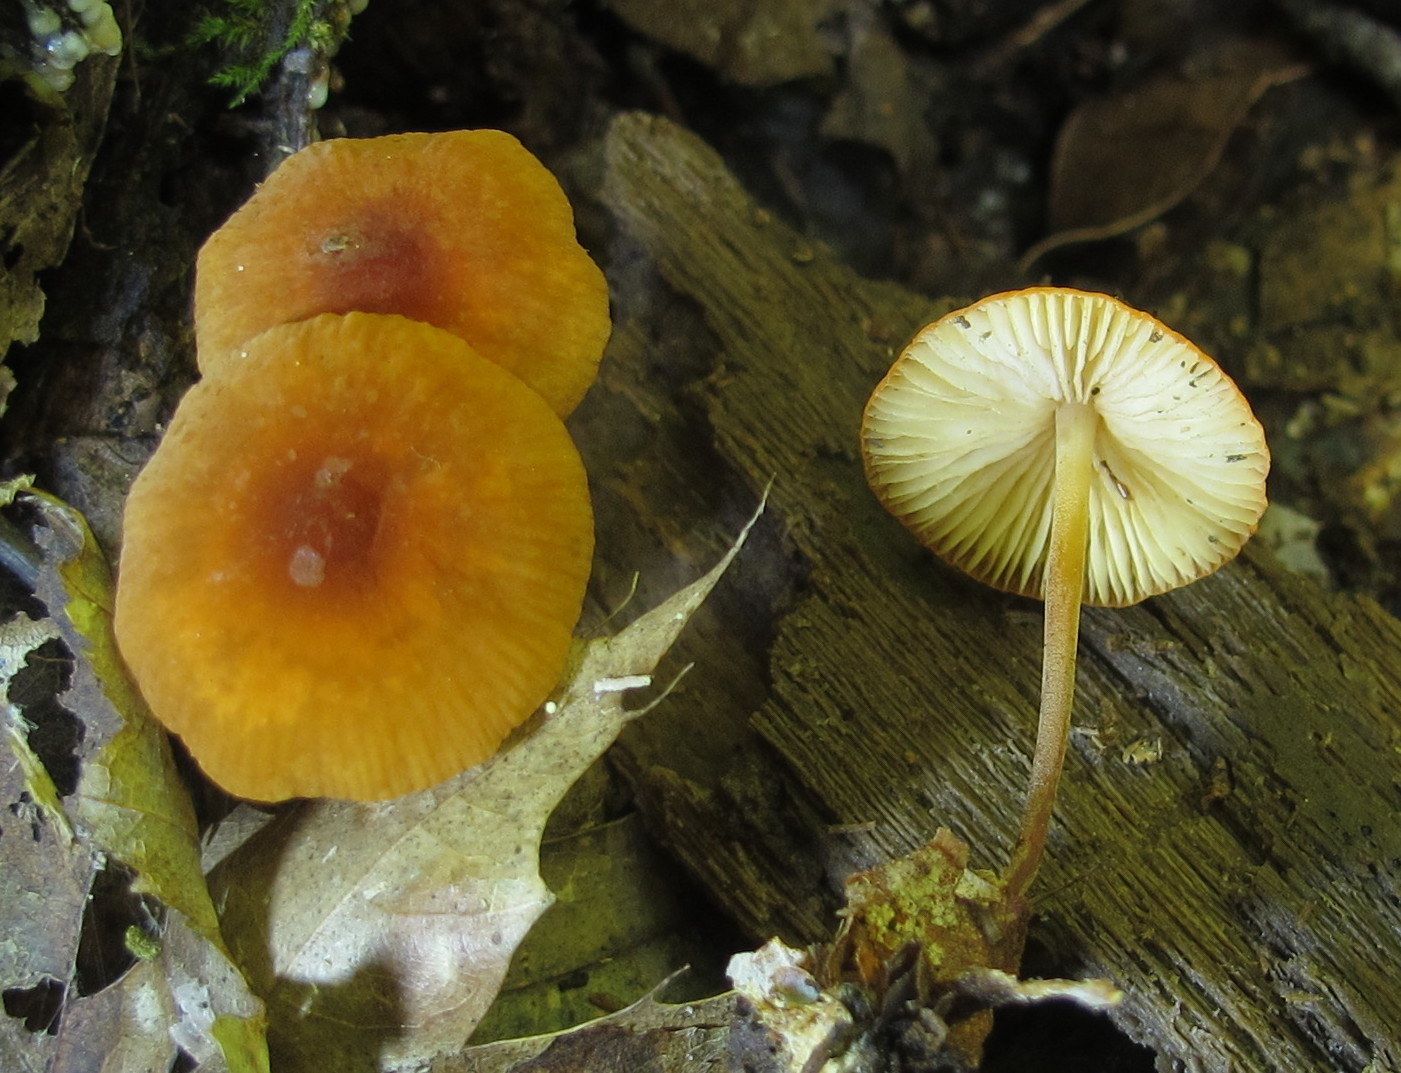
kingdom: Fungi
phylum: Basidiomycota
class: Agaricomycetes
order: Agaricales
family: Marasmiaceae
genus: Marasmius
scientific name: Marasmius sullivantii
